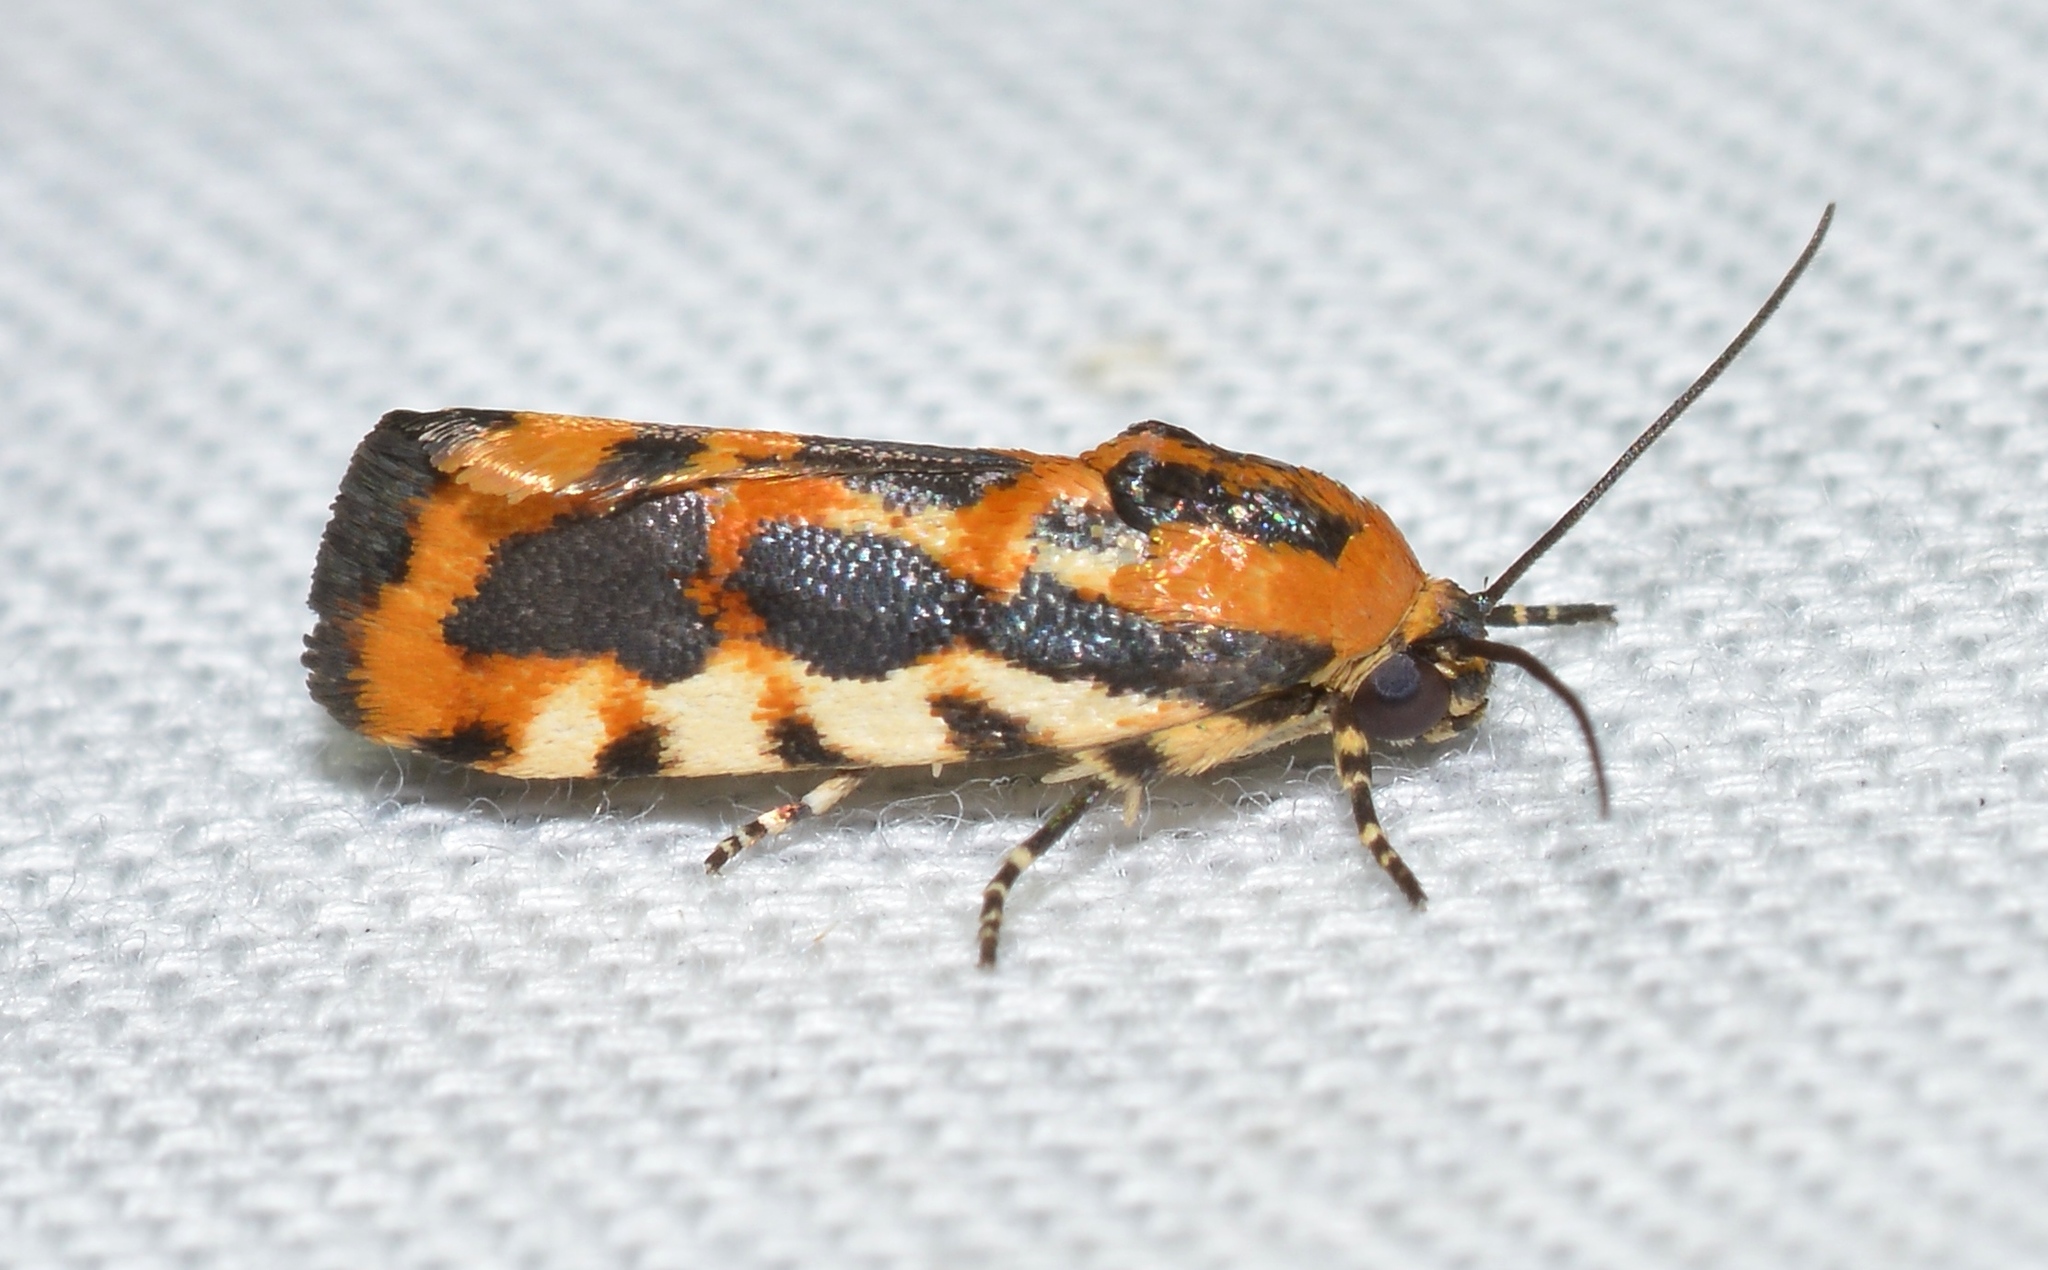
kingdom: Animalia
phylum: Arthropoda
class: Insecta
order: Lepidoptera
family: Noctuidae
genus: Acontia
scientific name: Acontia leo
